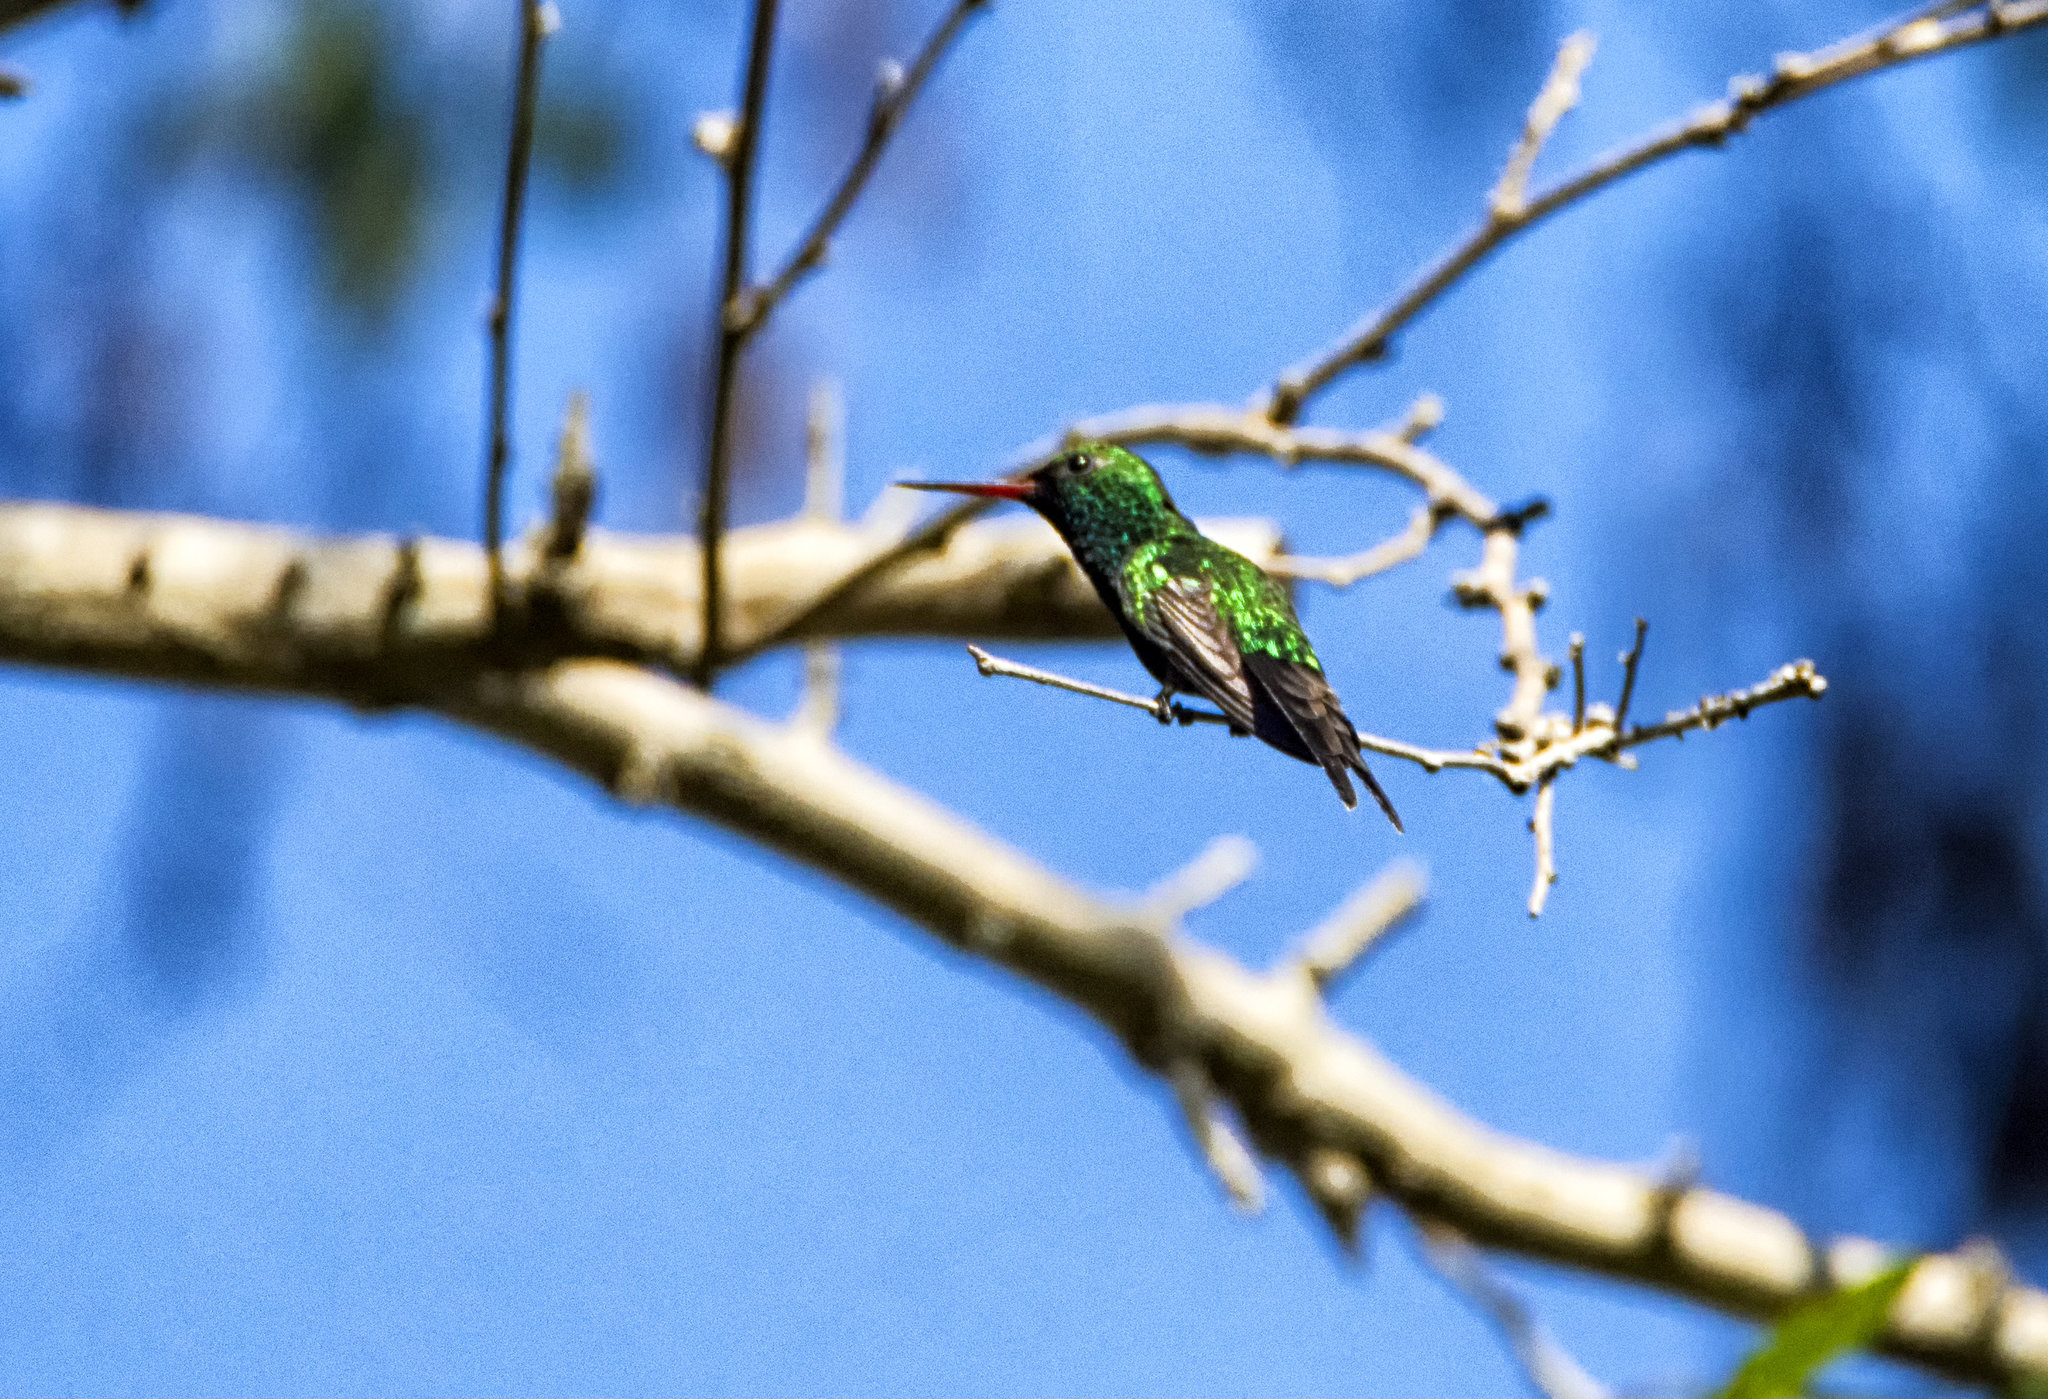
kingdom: Animalia
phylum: Chordata
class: Aves
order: Apodiformes
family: Trochilidae
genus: Cynanthus
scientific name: Cynanthus auriceps
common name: Golden-crowned emerald
